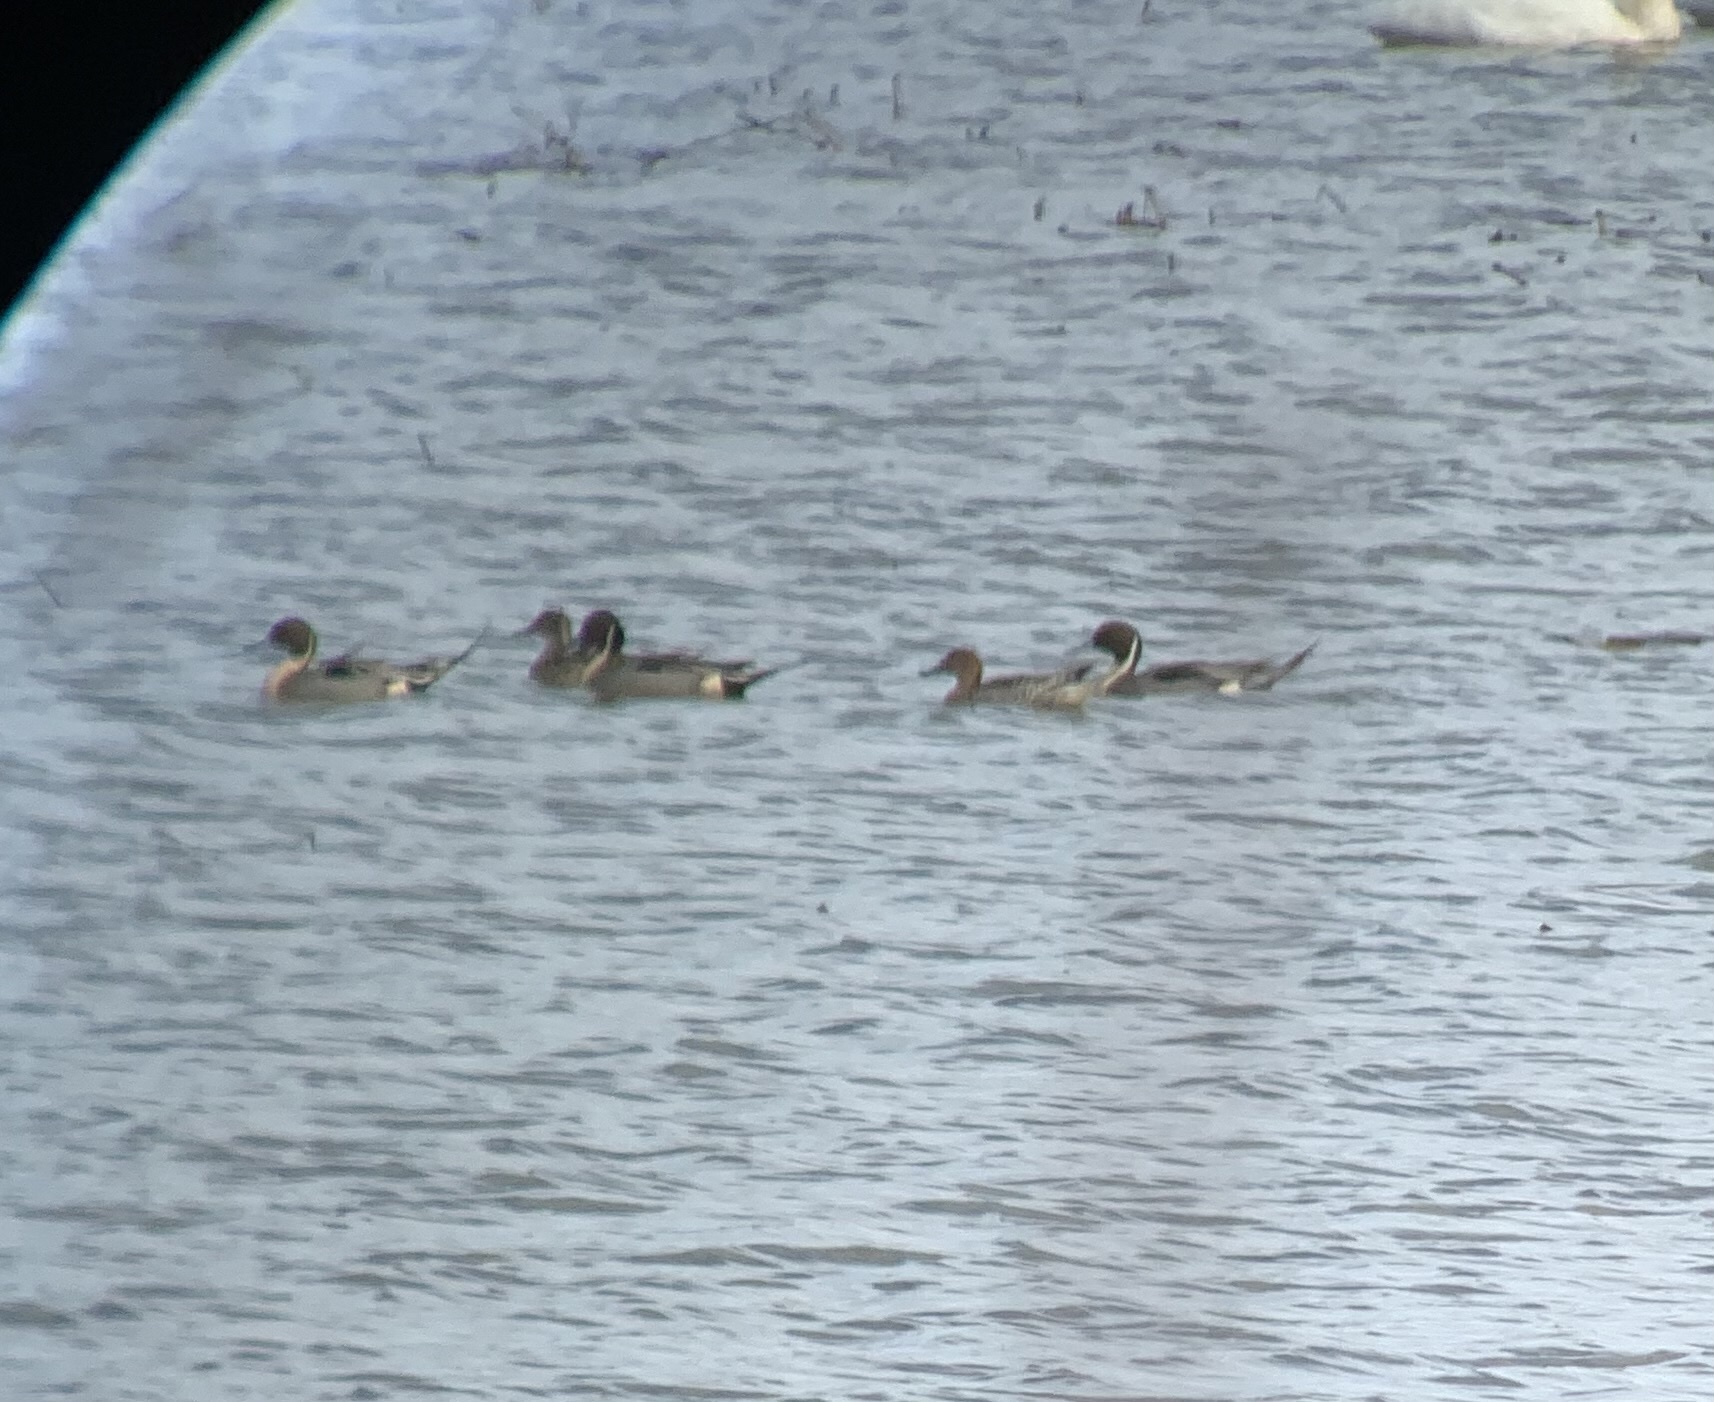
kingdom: Animalia
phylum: Chordata
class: Aves
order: Anseriformes
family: Anatidae
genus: Anas
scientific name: Anas acuta
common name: Northern pintail
